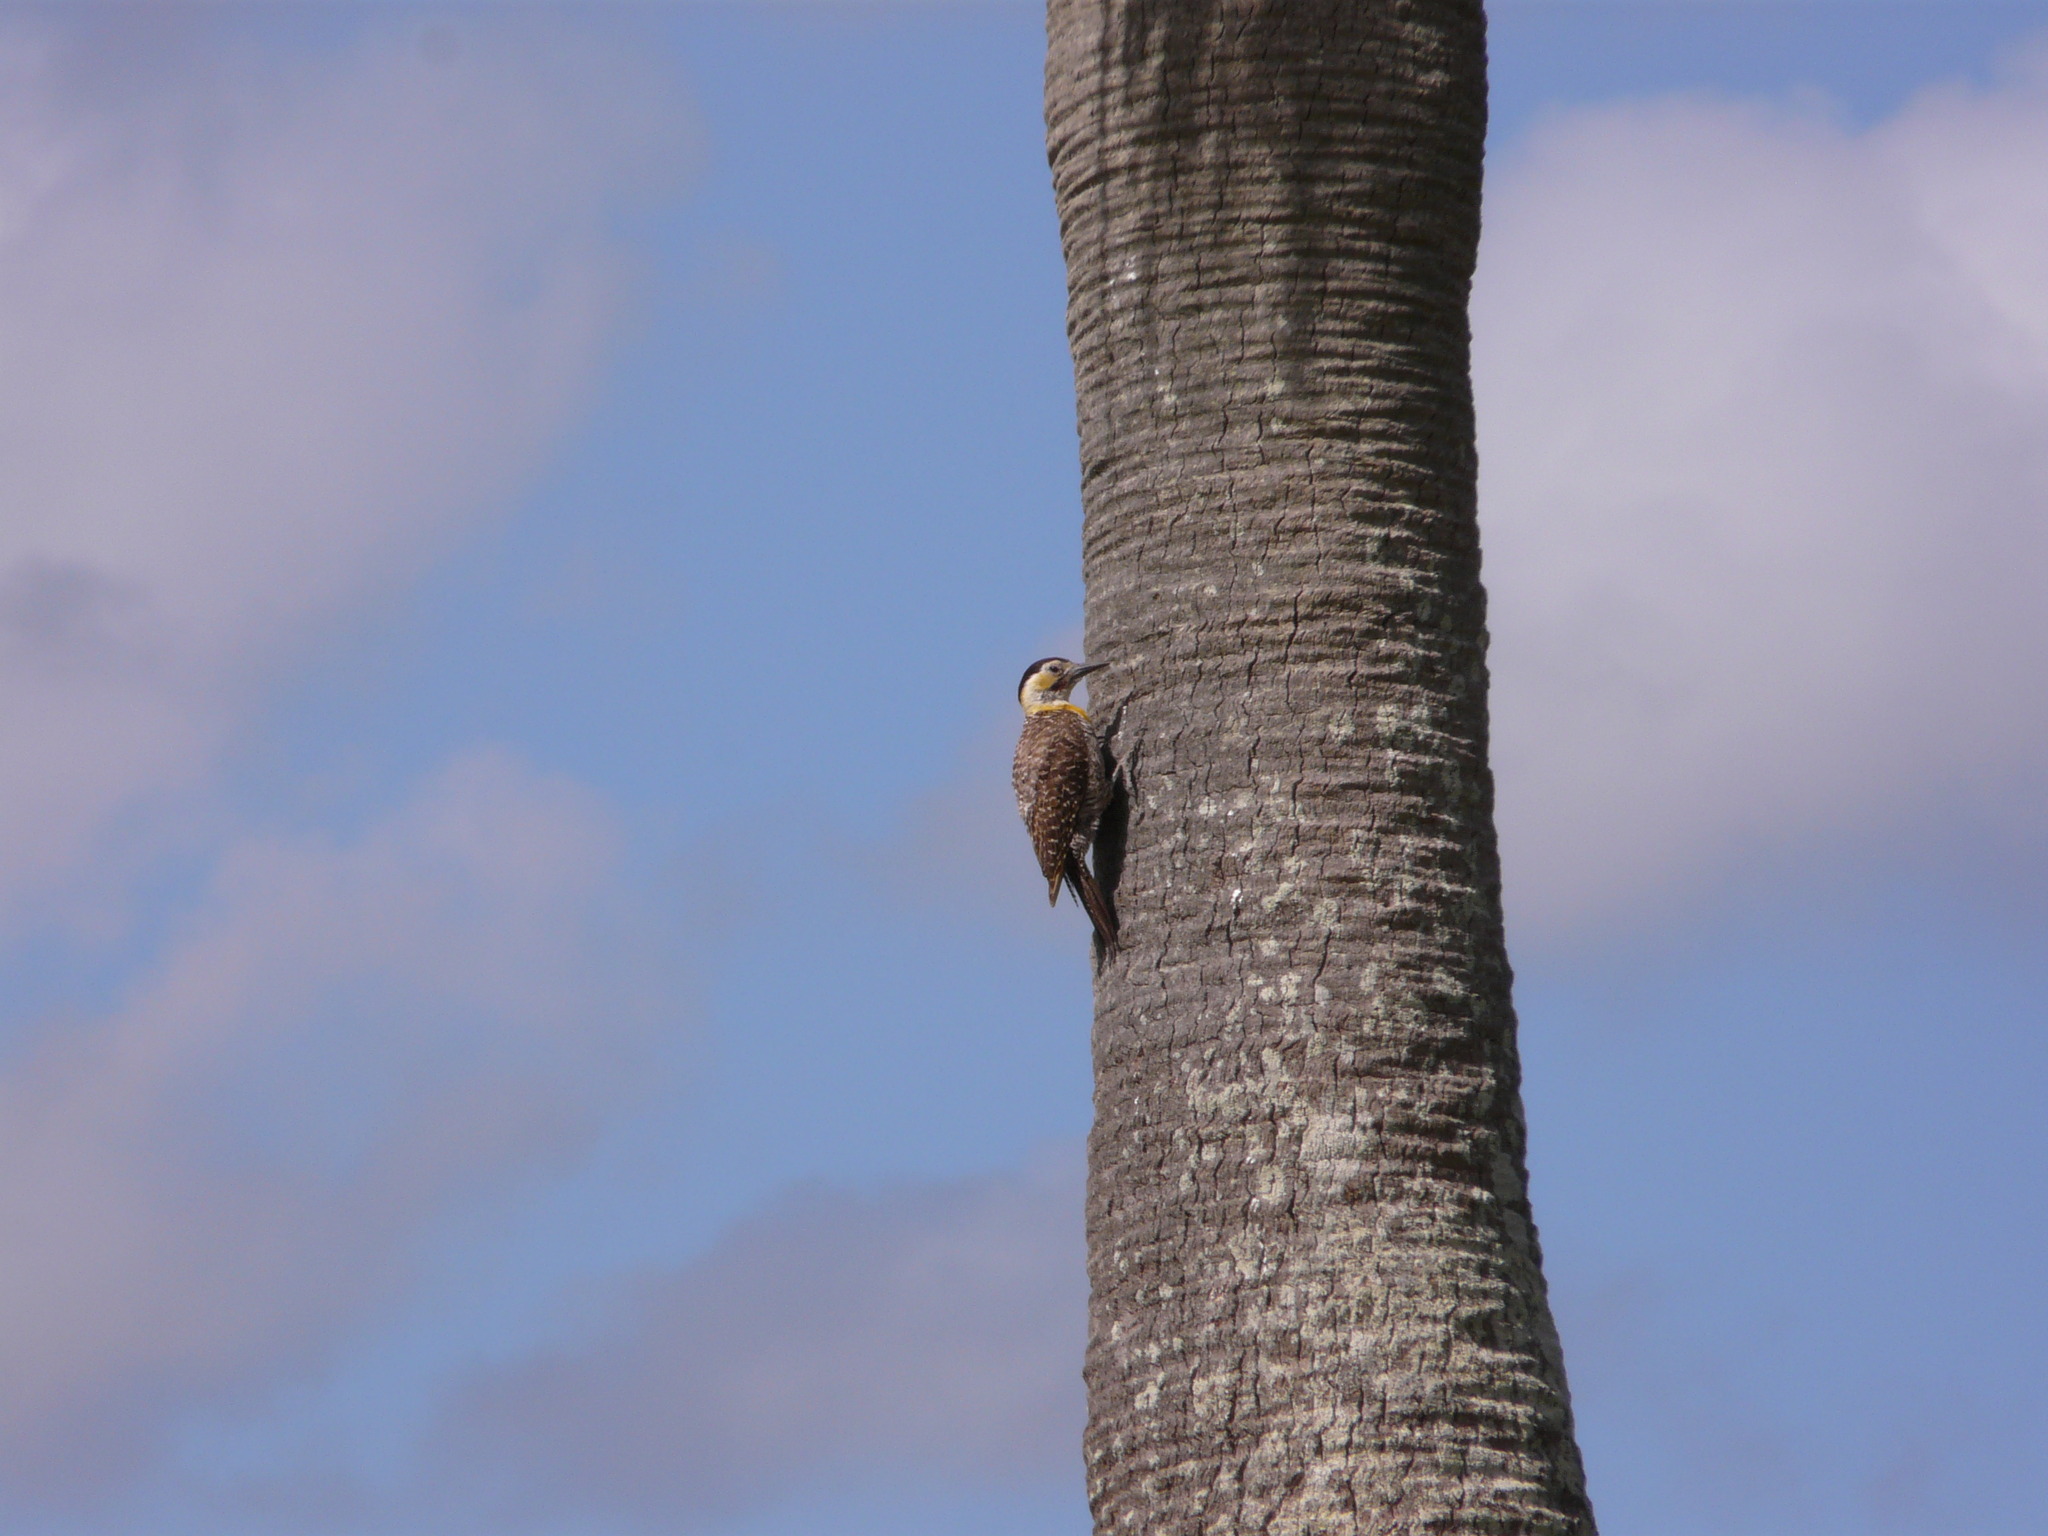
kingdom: Animalia
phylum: Chordata
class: Aves
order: Piciformes
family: Picidae
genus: Colaptes
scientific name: Colaptes campestris
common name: Campo flicker
